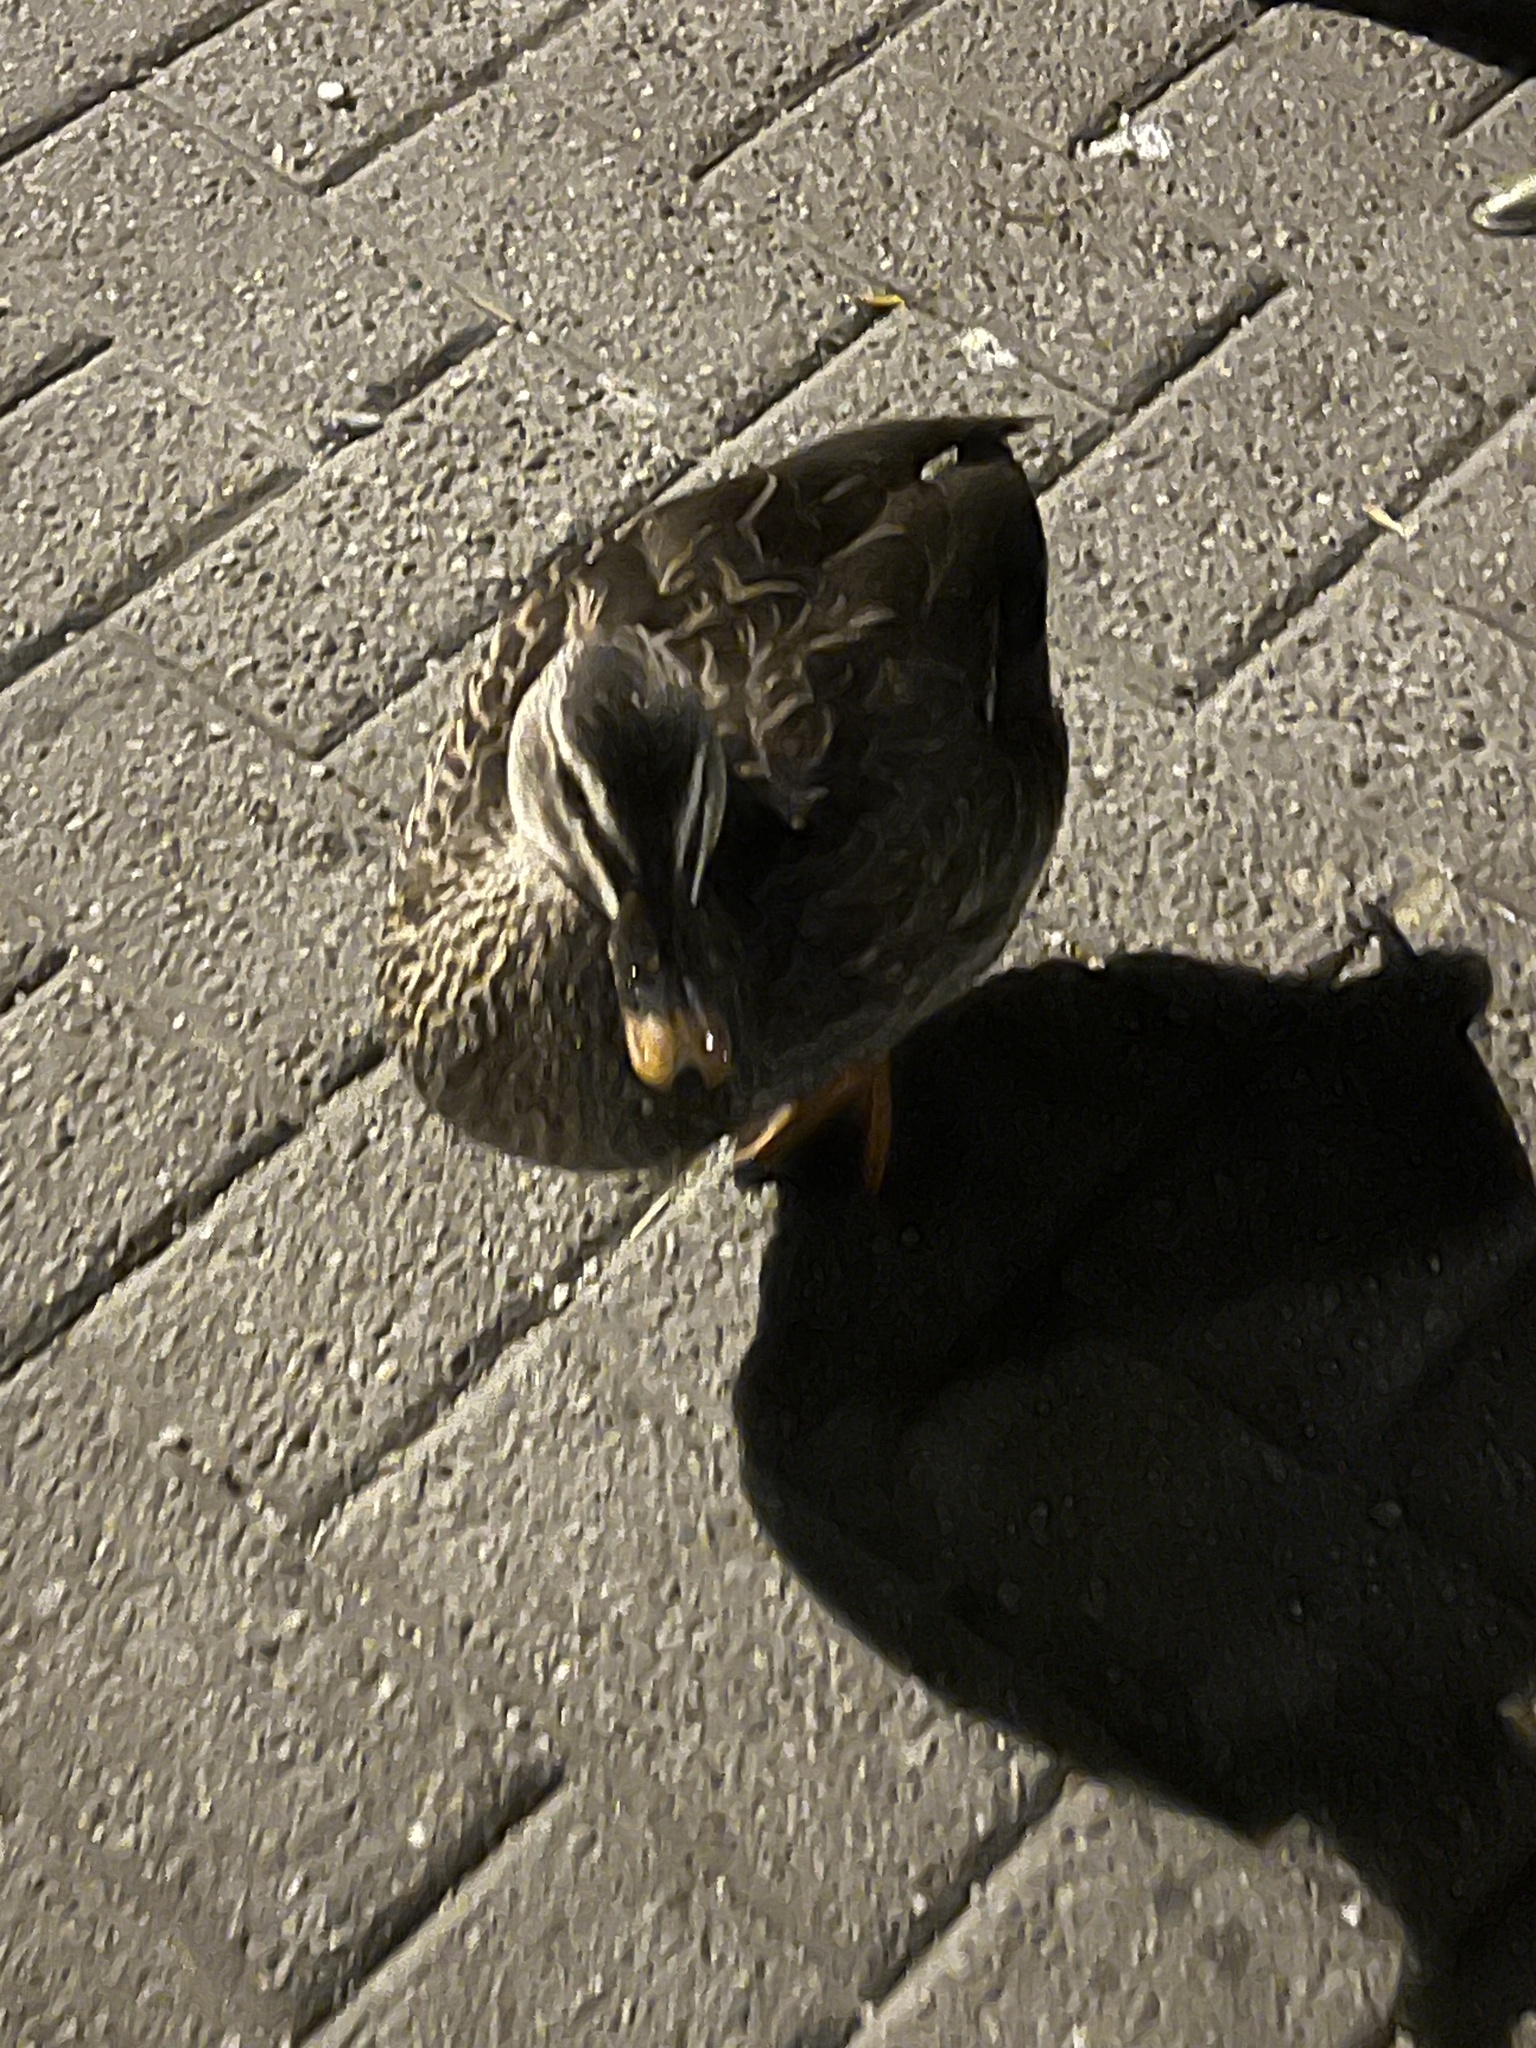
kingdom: Animalia
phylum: Chordata
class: Aves
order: Anseriformes
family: Anatidae
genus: Anas
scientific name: Anas
